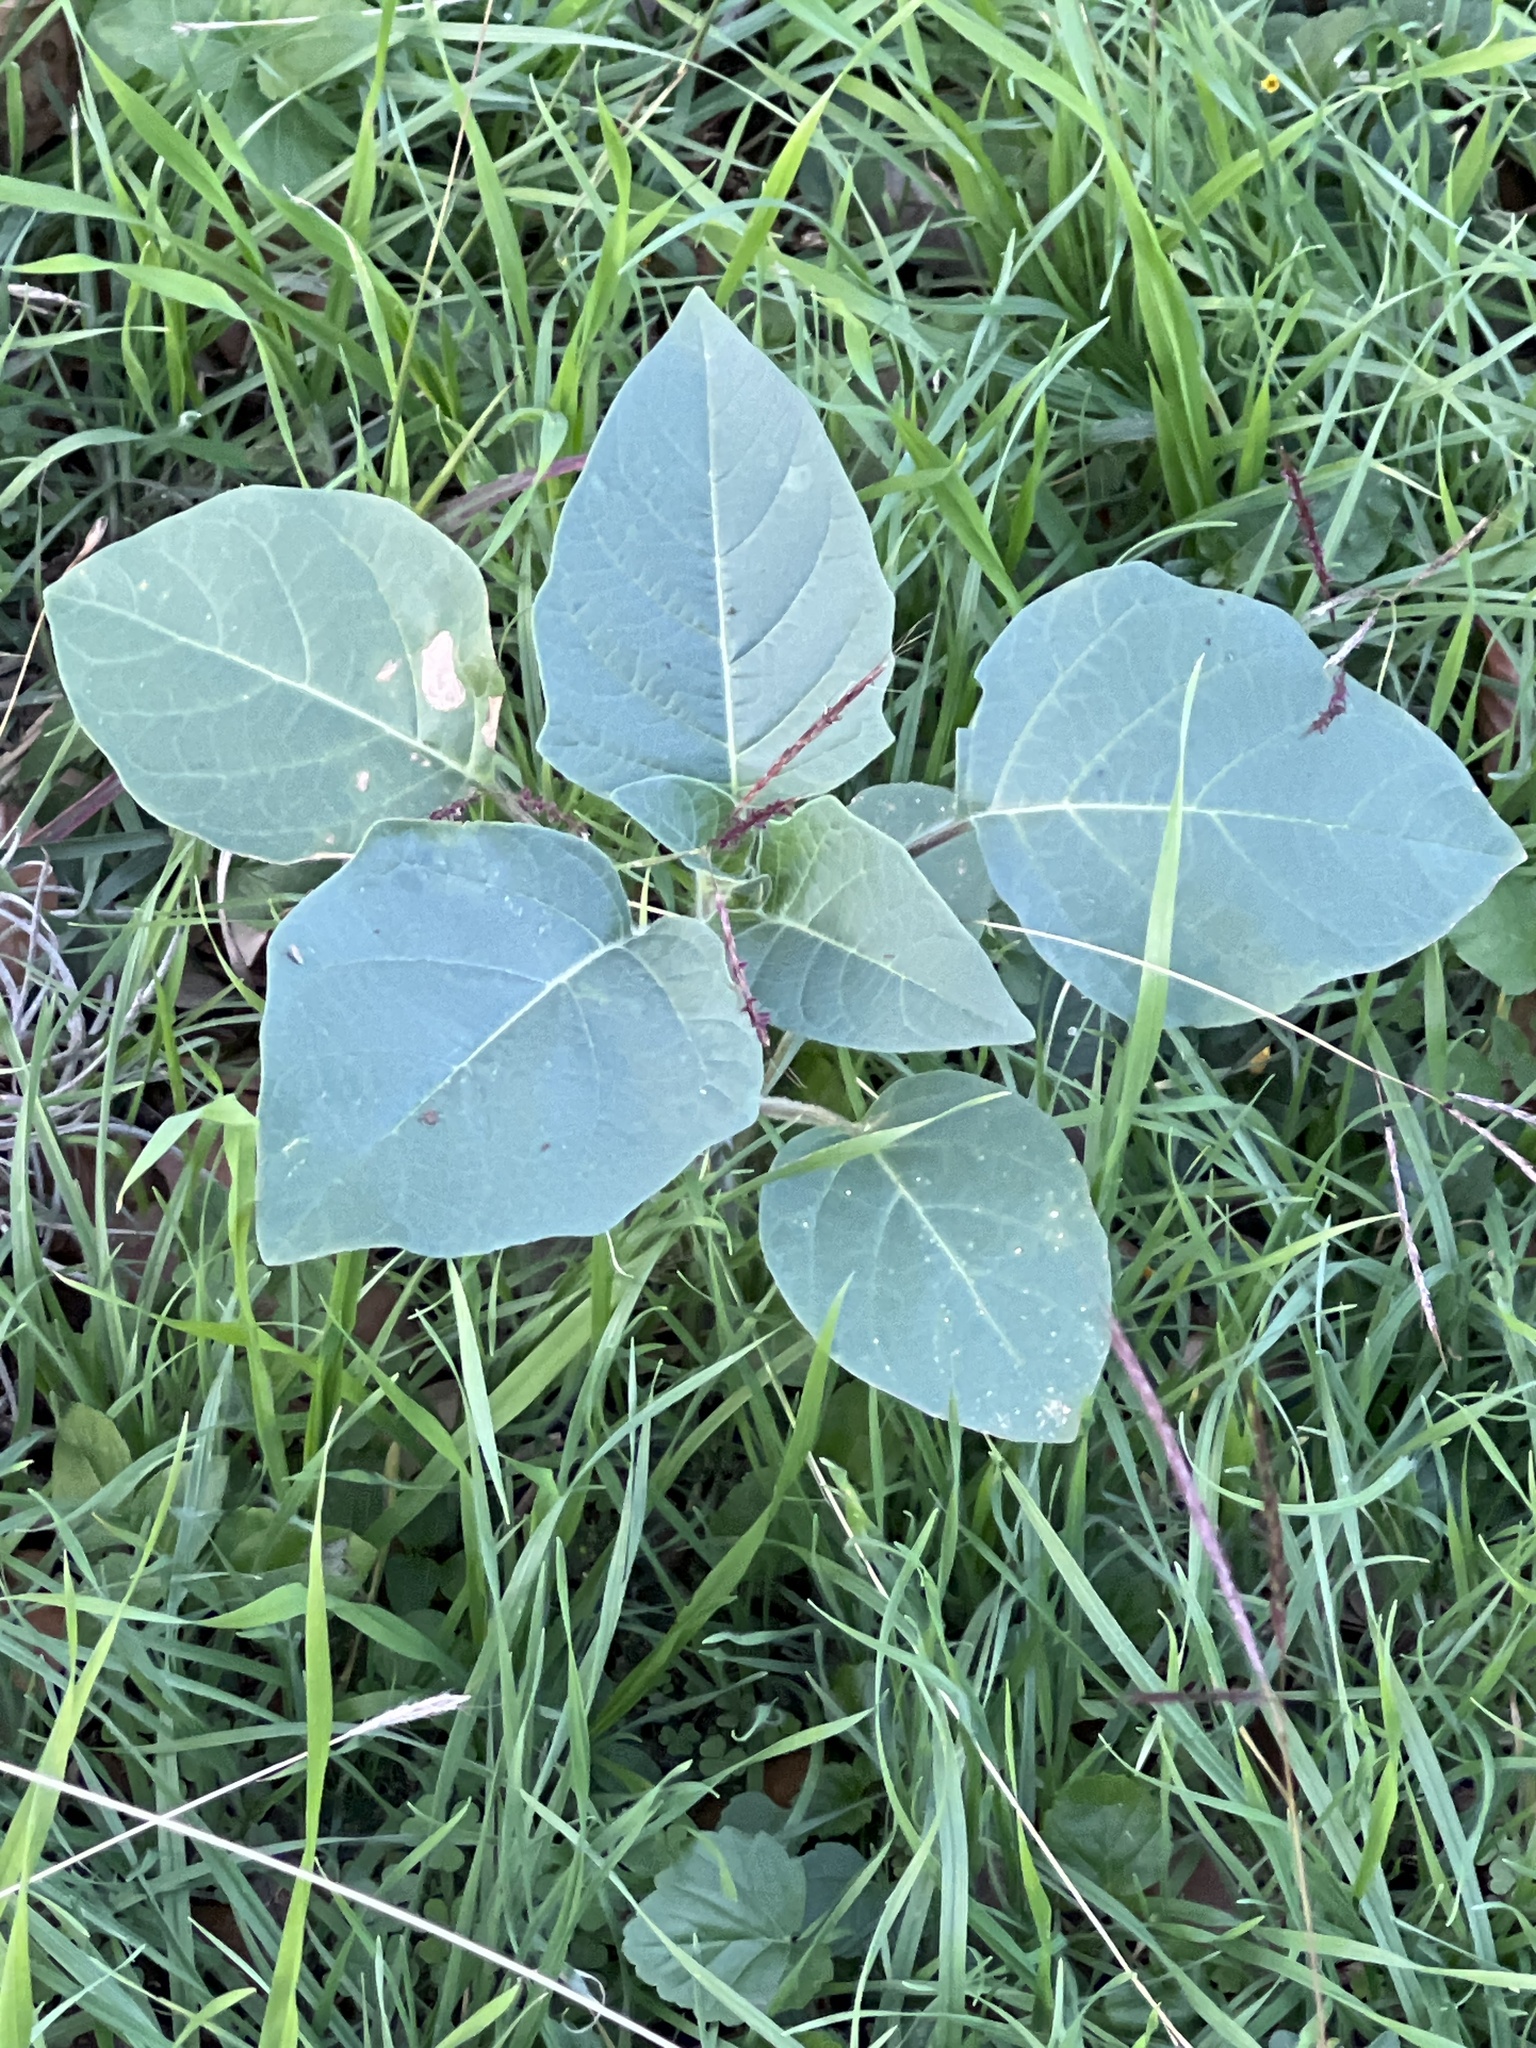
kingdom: Plantae
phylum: Tracheophyta
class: Magnoliopsida
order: Solanales
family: Solanaceae
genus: Datura
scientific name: Datura wrightii
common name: Sacred thorn-apple
